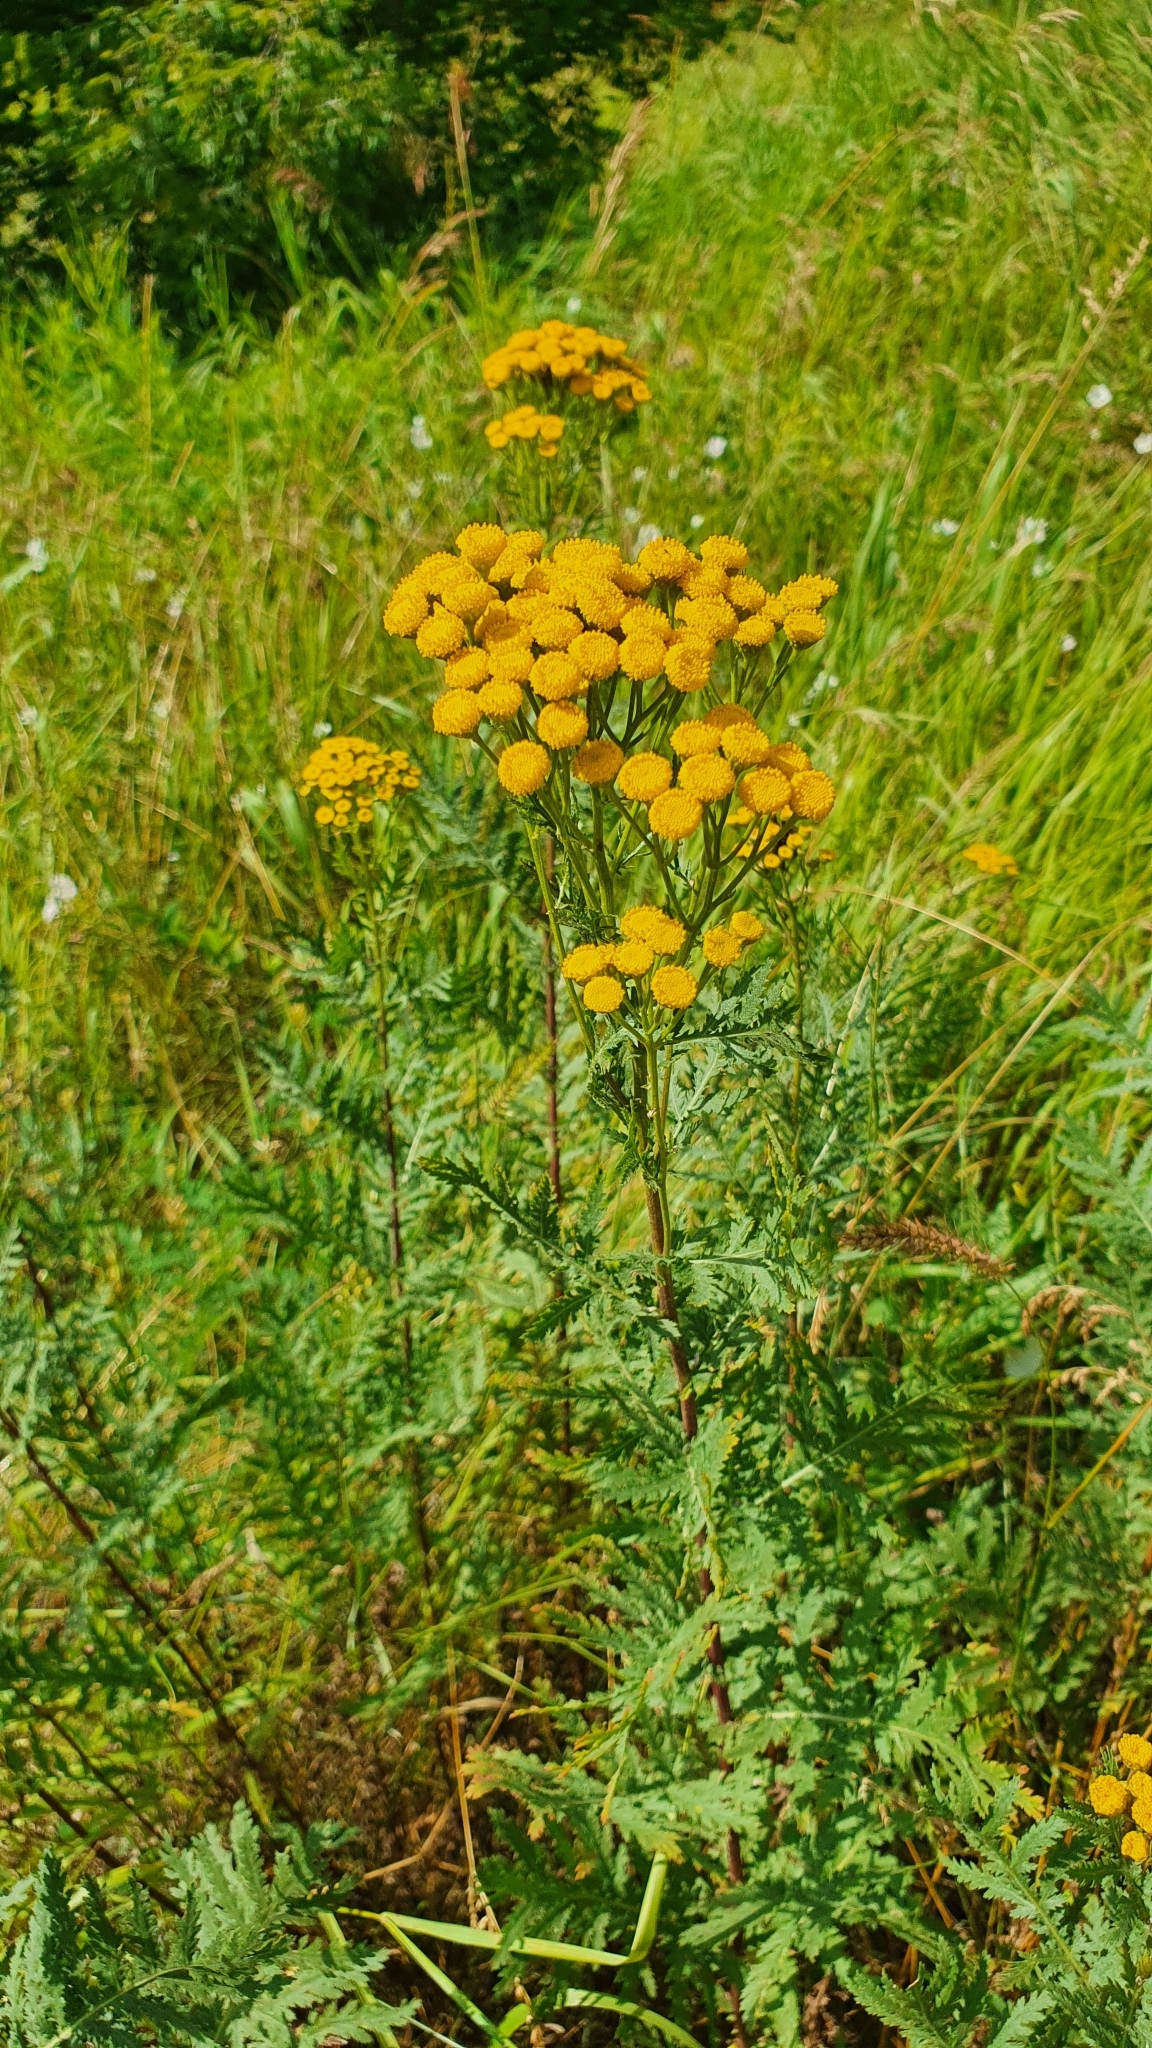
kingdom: Plantae
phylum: Tracheophyta
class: Magnoliopsida
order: Asterales
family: Asteraceae
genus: Tanacetum
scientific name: Tanacetum vulgare
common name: Common tansy
